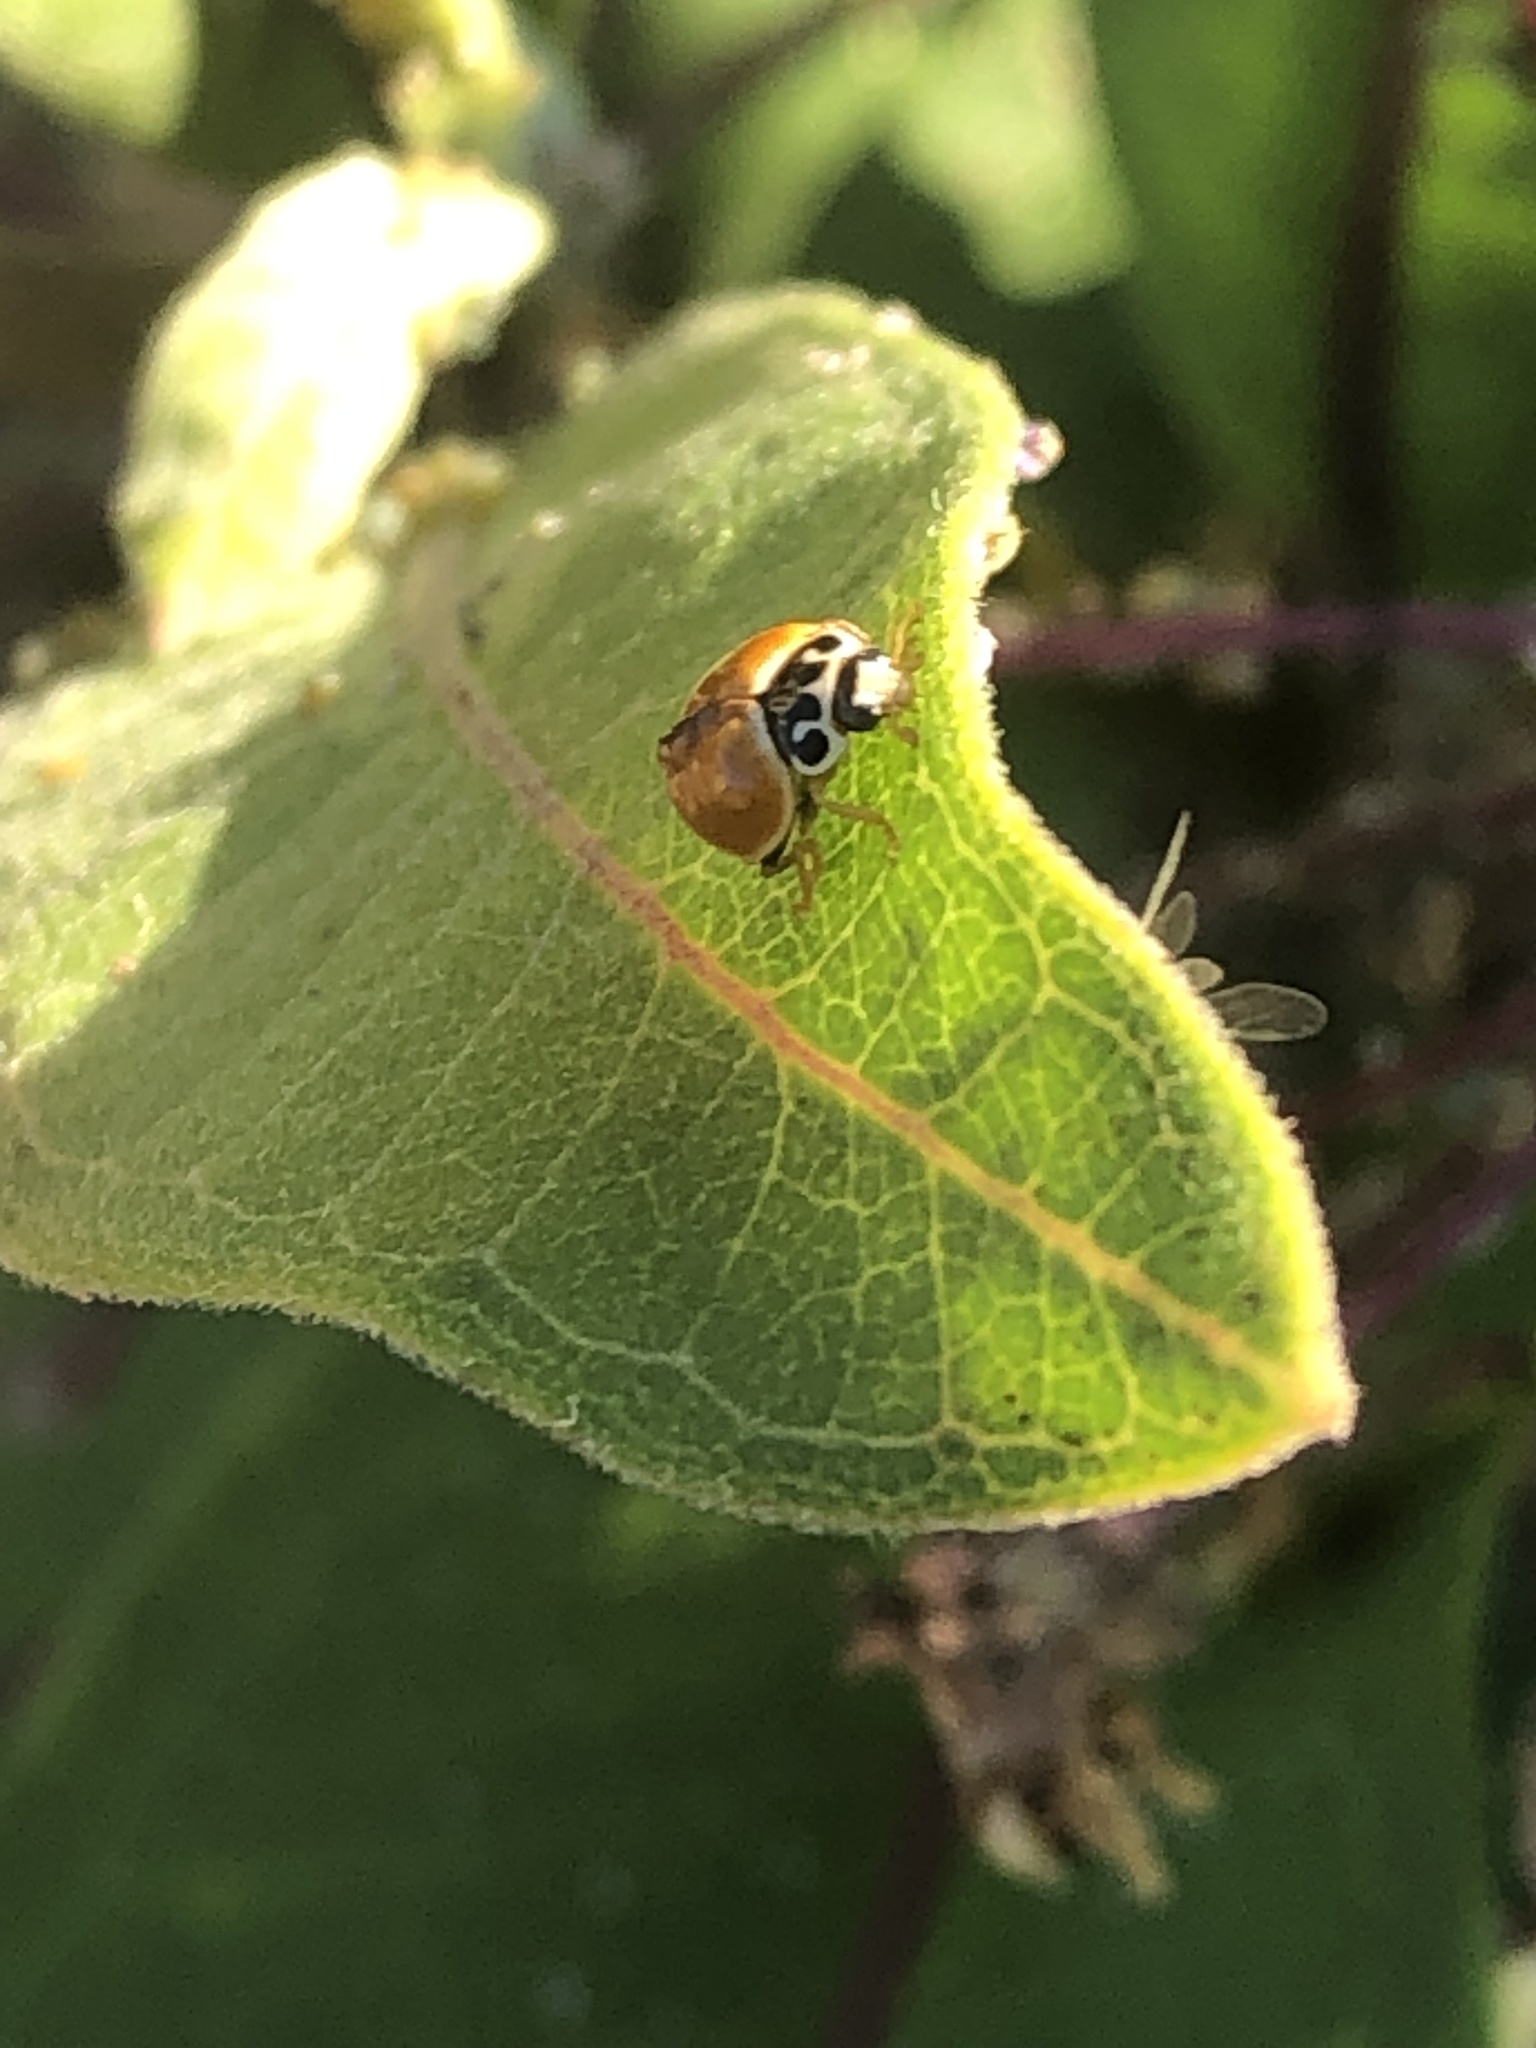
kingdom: Animalia
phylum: Arthropoda
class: Insecta
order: Coleoptera
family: Coccinellidae
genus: Cycloneda
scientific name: Cycloneda munda
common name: Polished lady beetle
